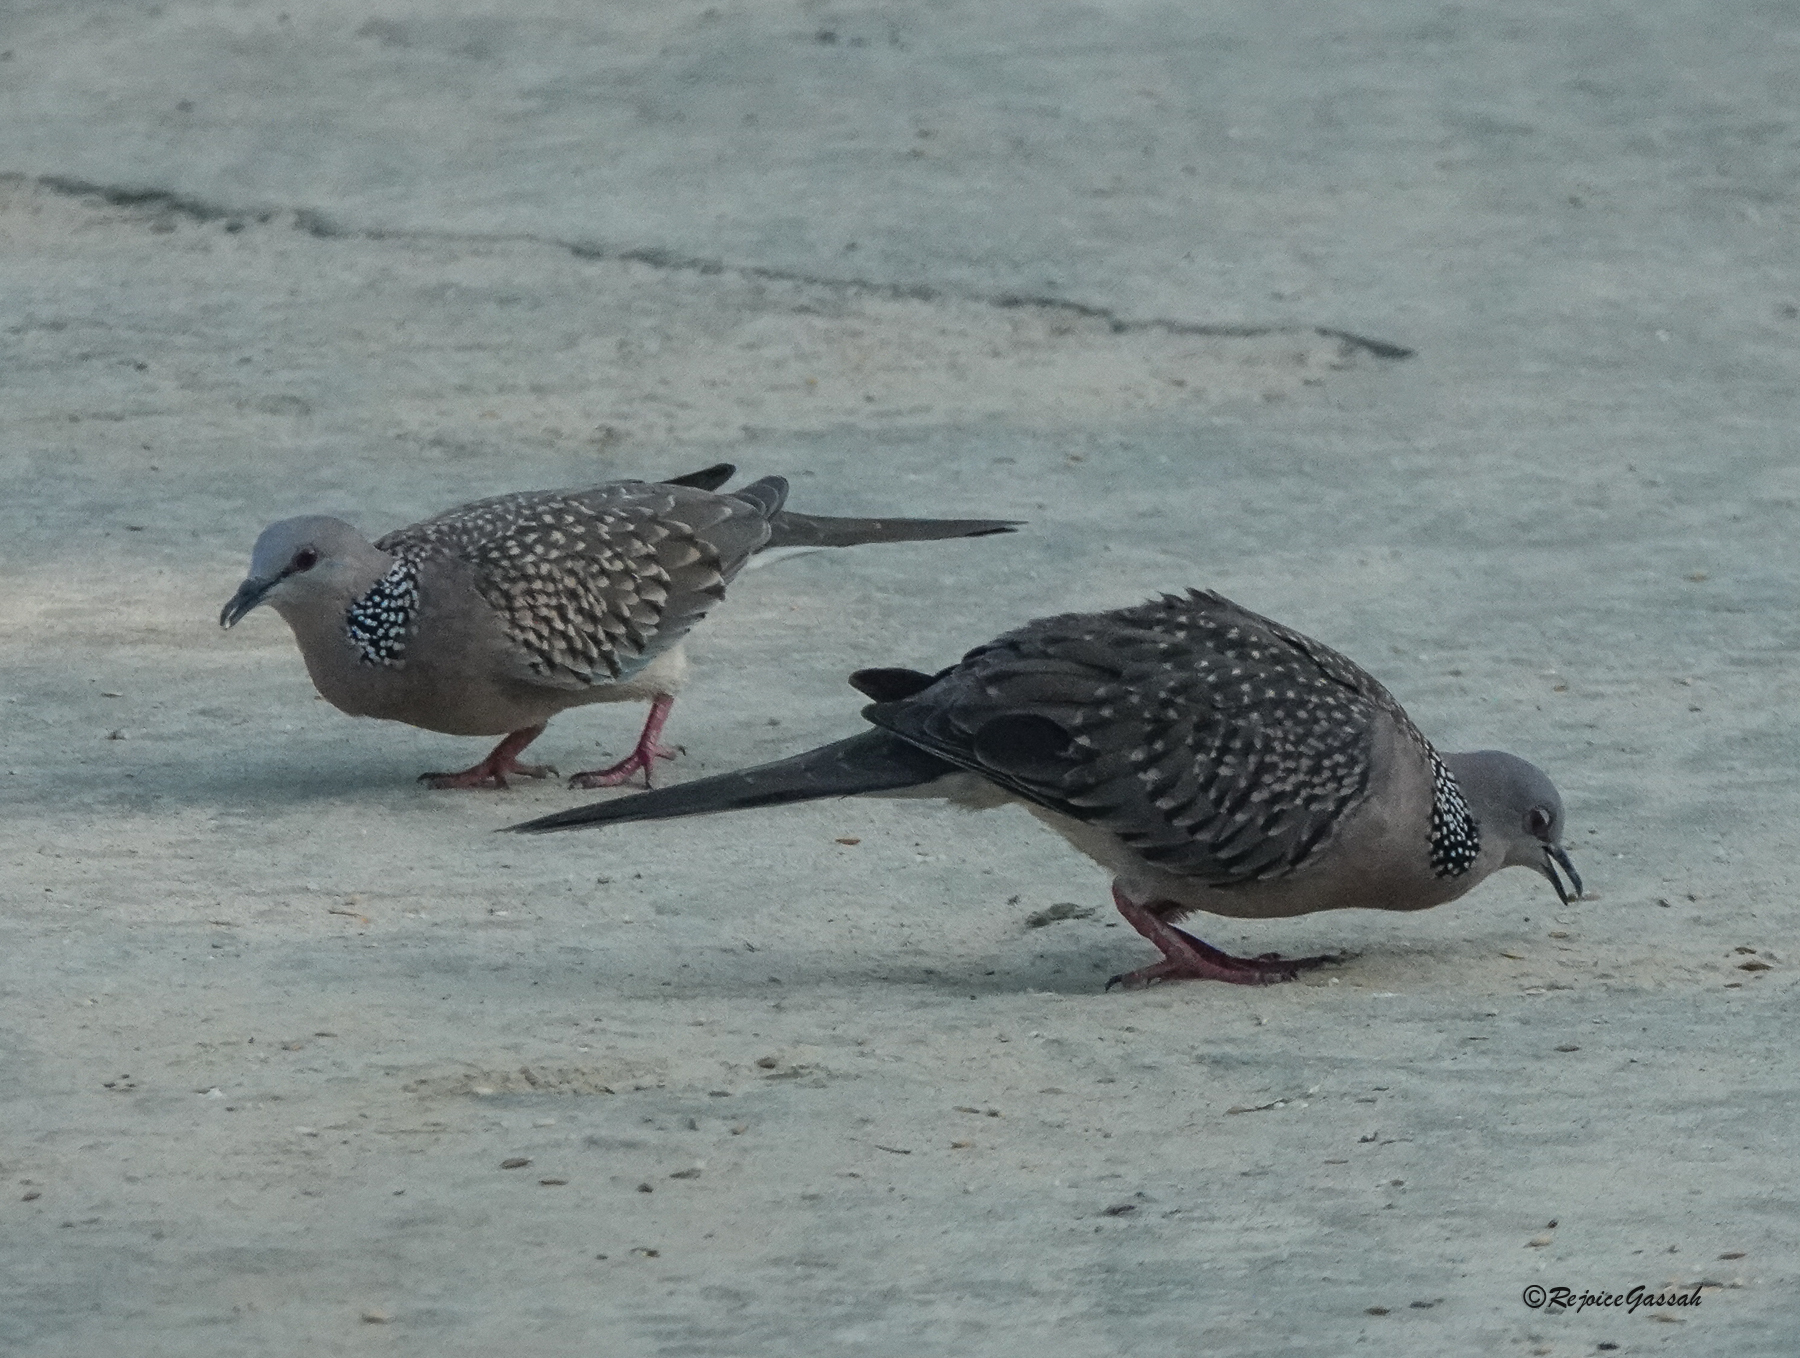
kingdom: Animalia
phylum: Chordata
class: Aves
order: Columbiformes
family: Columbidae
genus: Spilopelia
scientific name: Spilopelia chinensis
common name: Spotted dove
